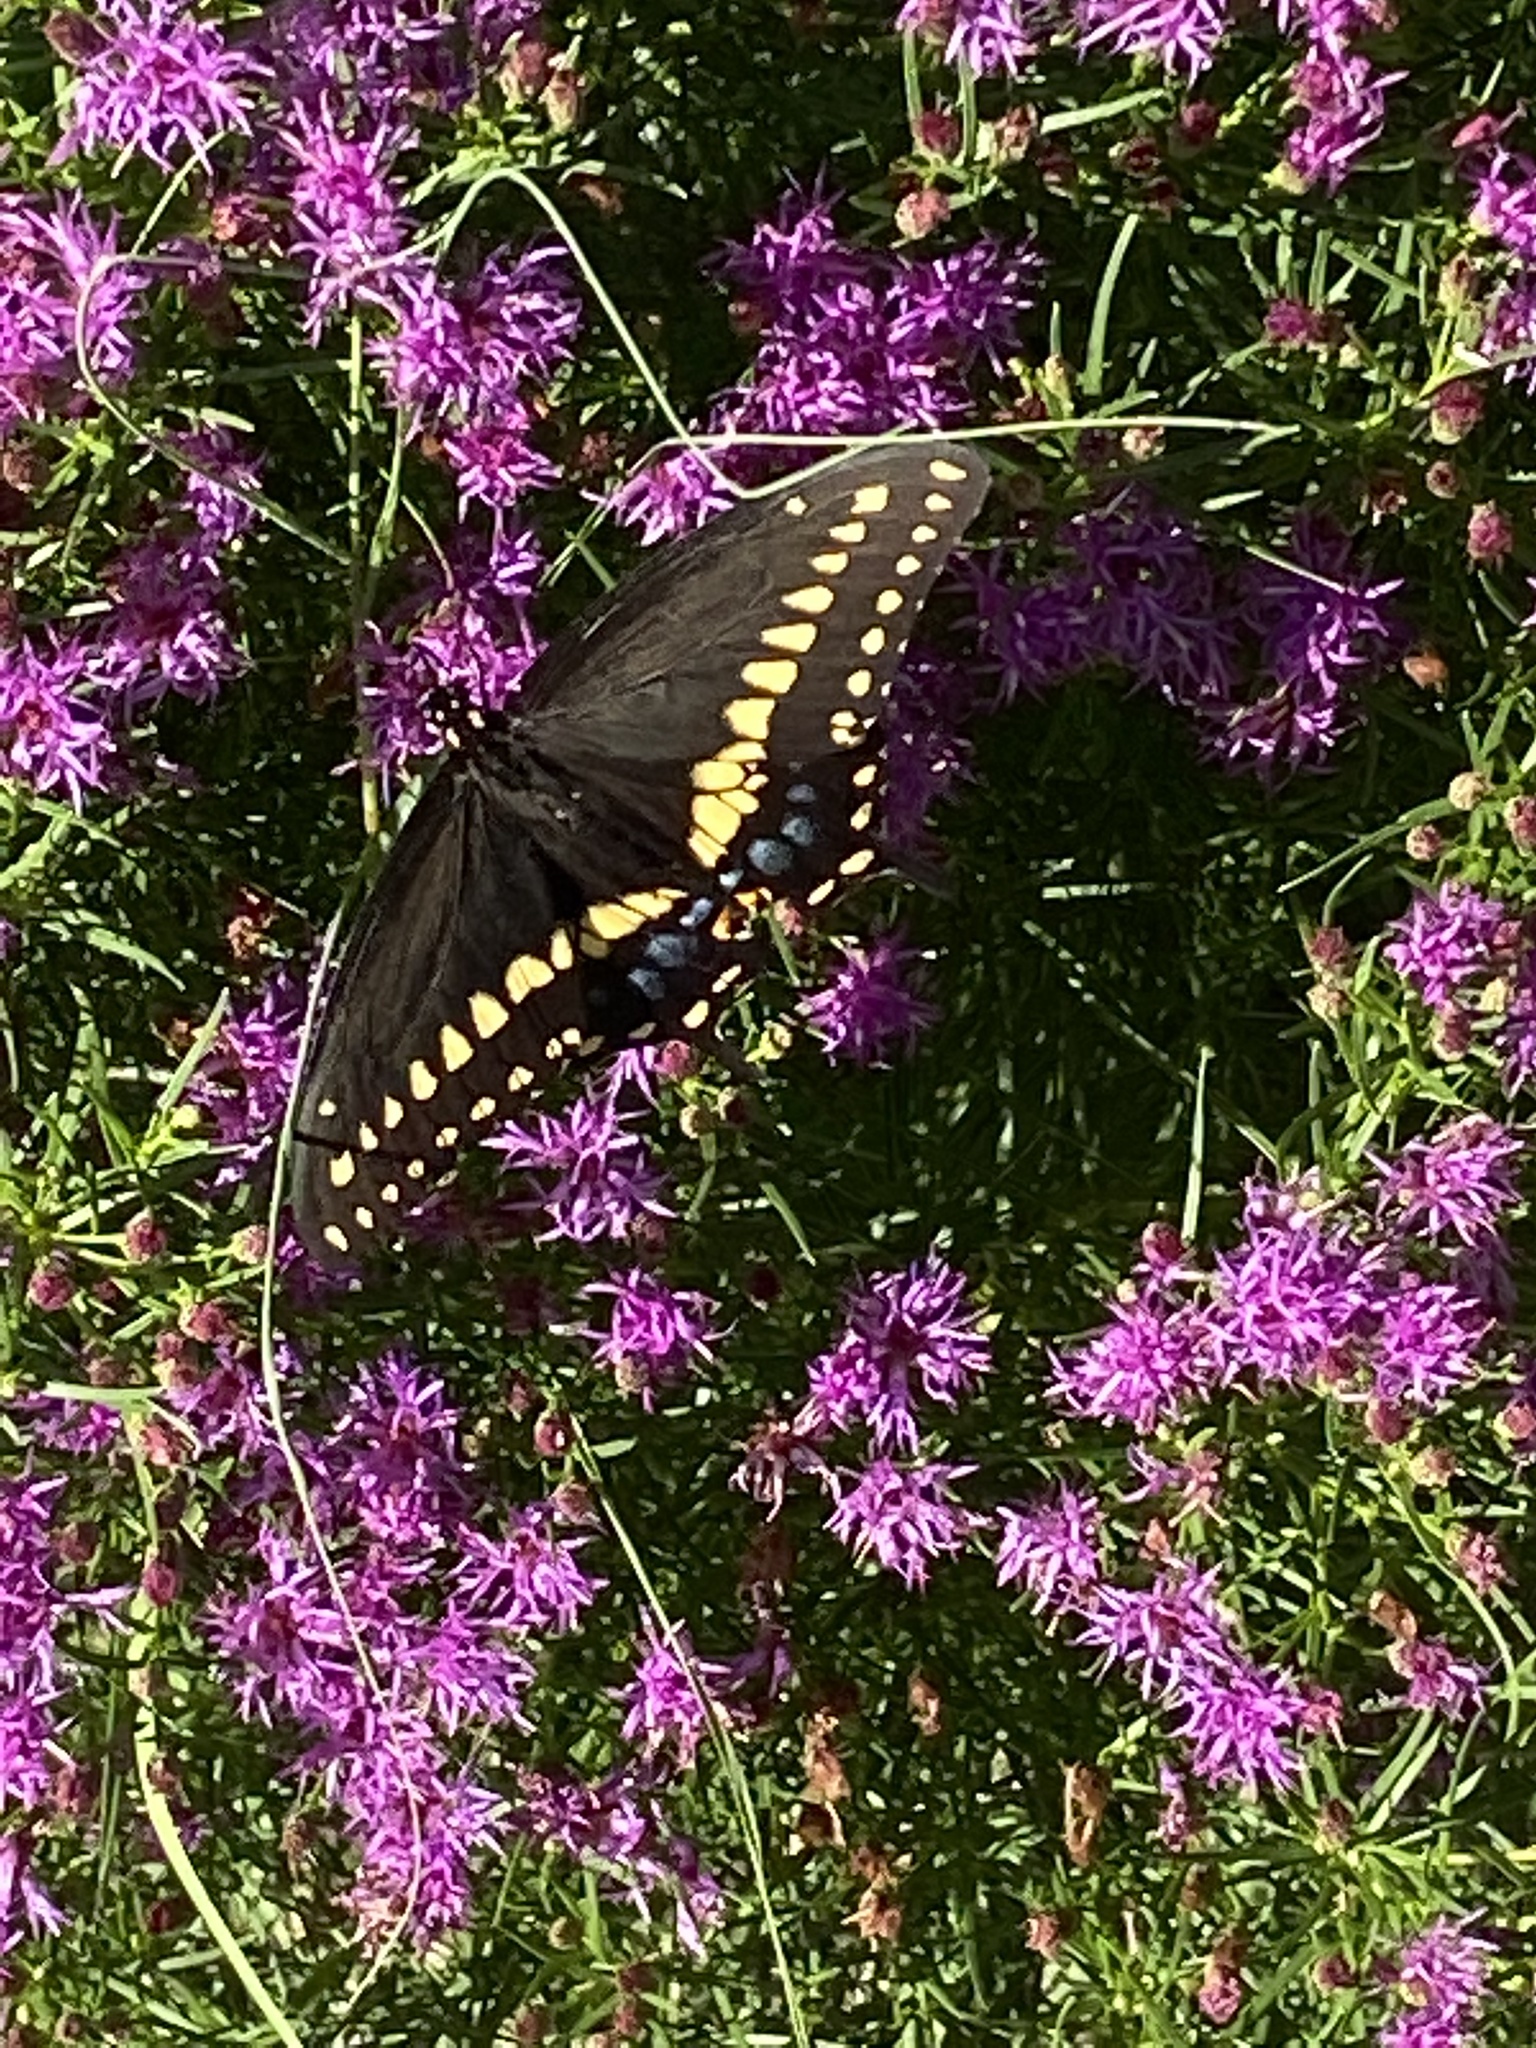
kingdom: Animalia
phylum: Arthropoda
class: Insecta
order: Lepidoptera
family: Papilionidae
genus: Papilio
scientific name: Papilio polyxenes
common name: Black swallowtail
